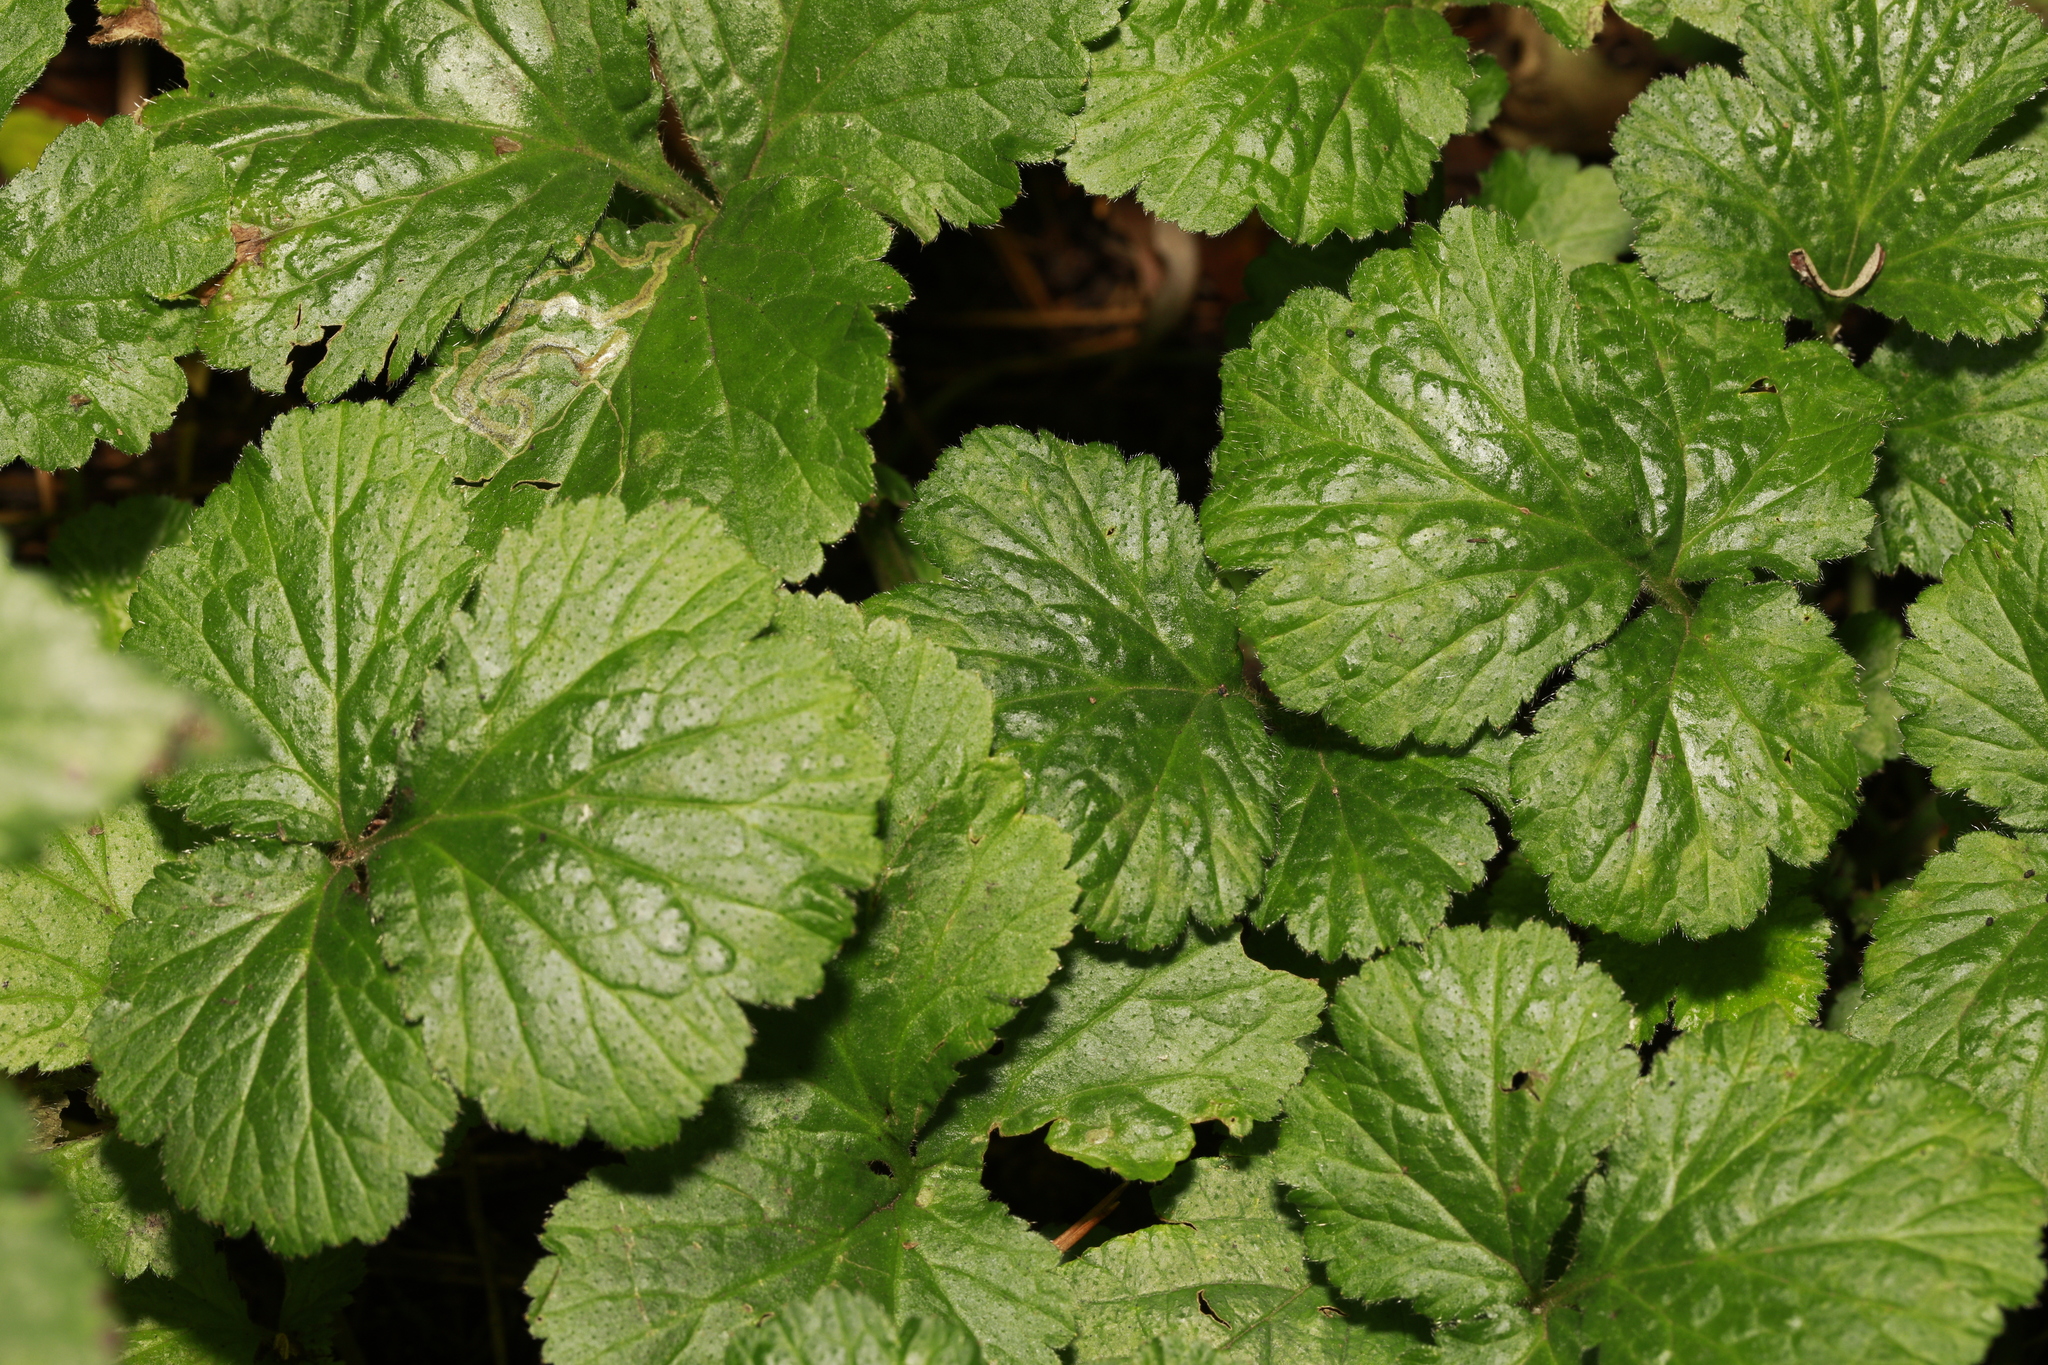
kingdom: Plantae
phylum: Tracheophyta
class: Magnoliopsida
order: Rosales
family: Rosaceae
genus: Geum
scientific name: Geum urbanum
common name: Wood avens
